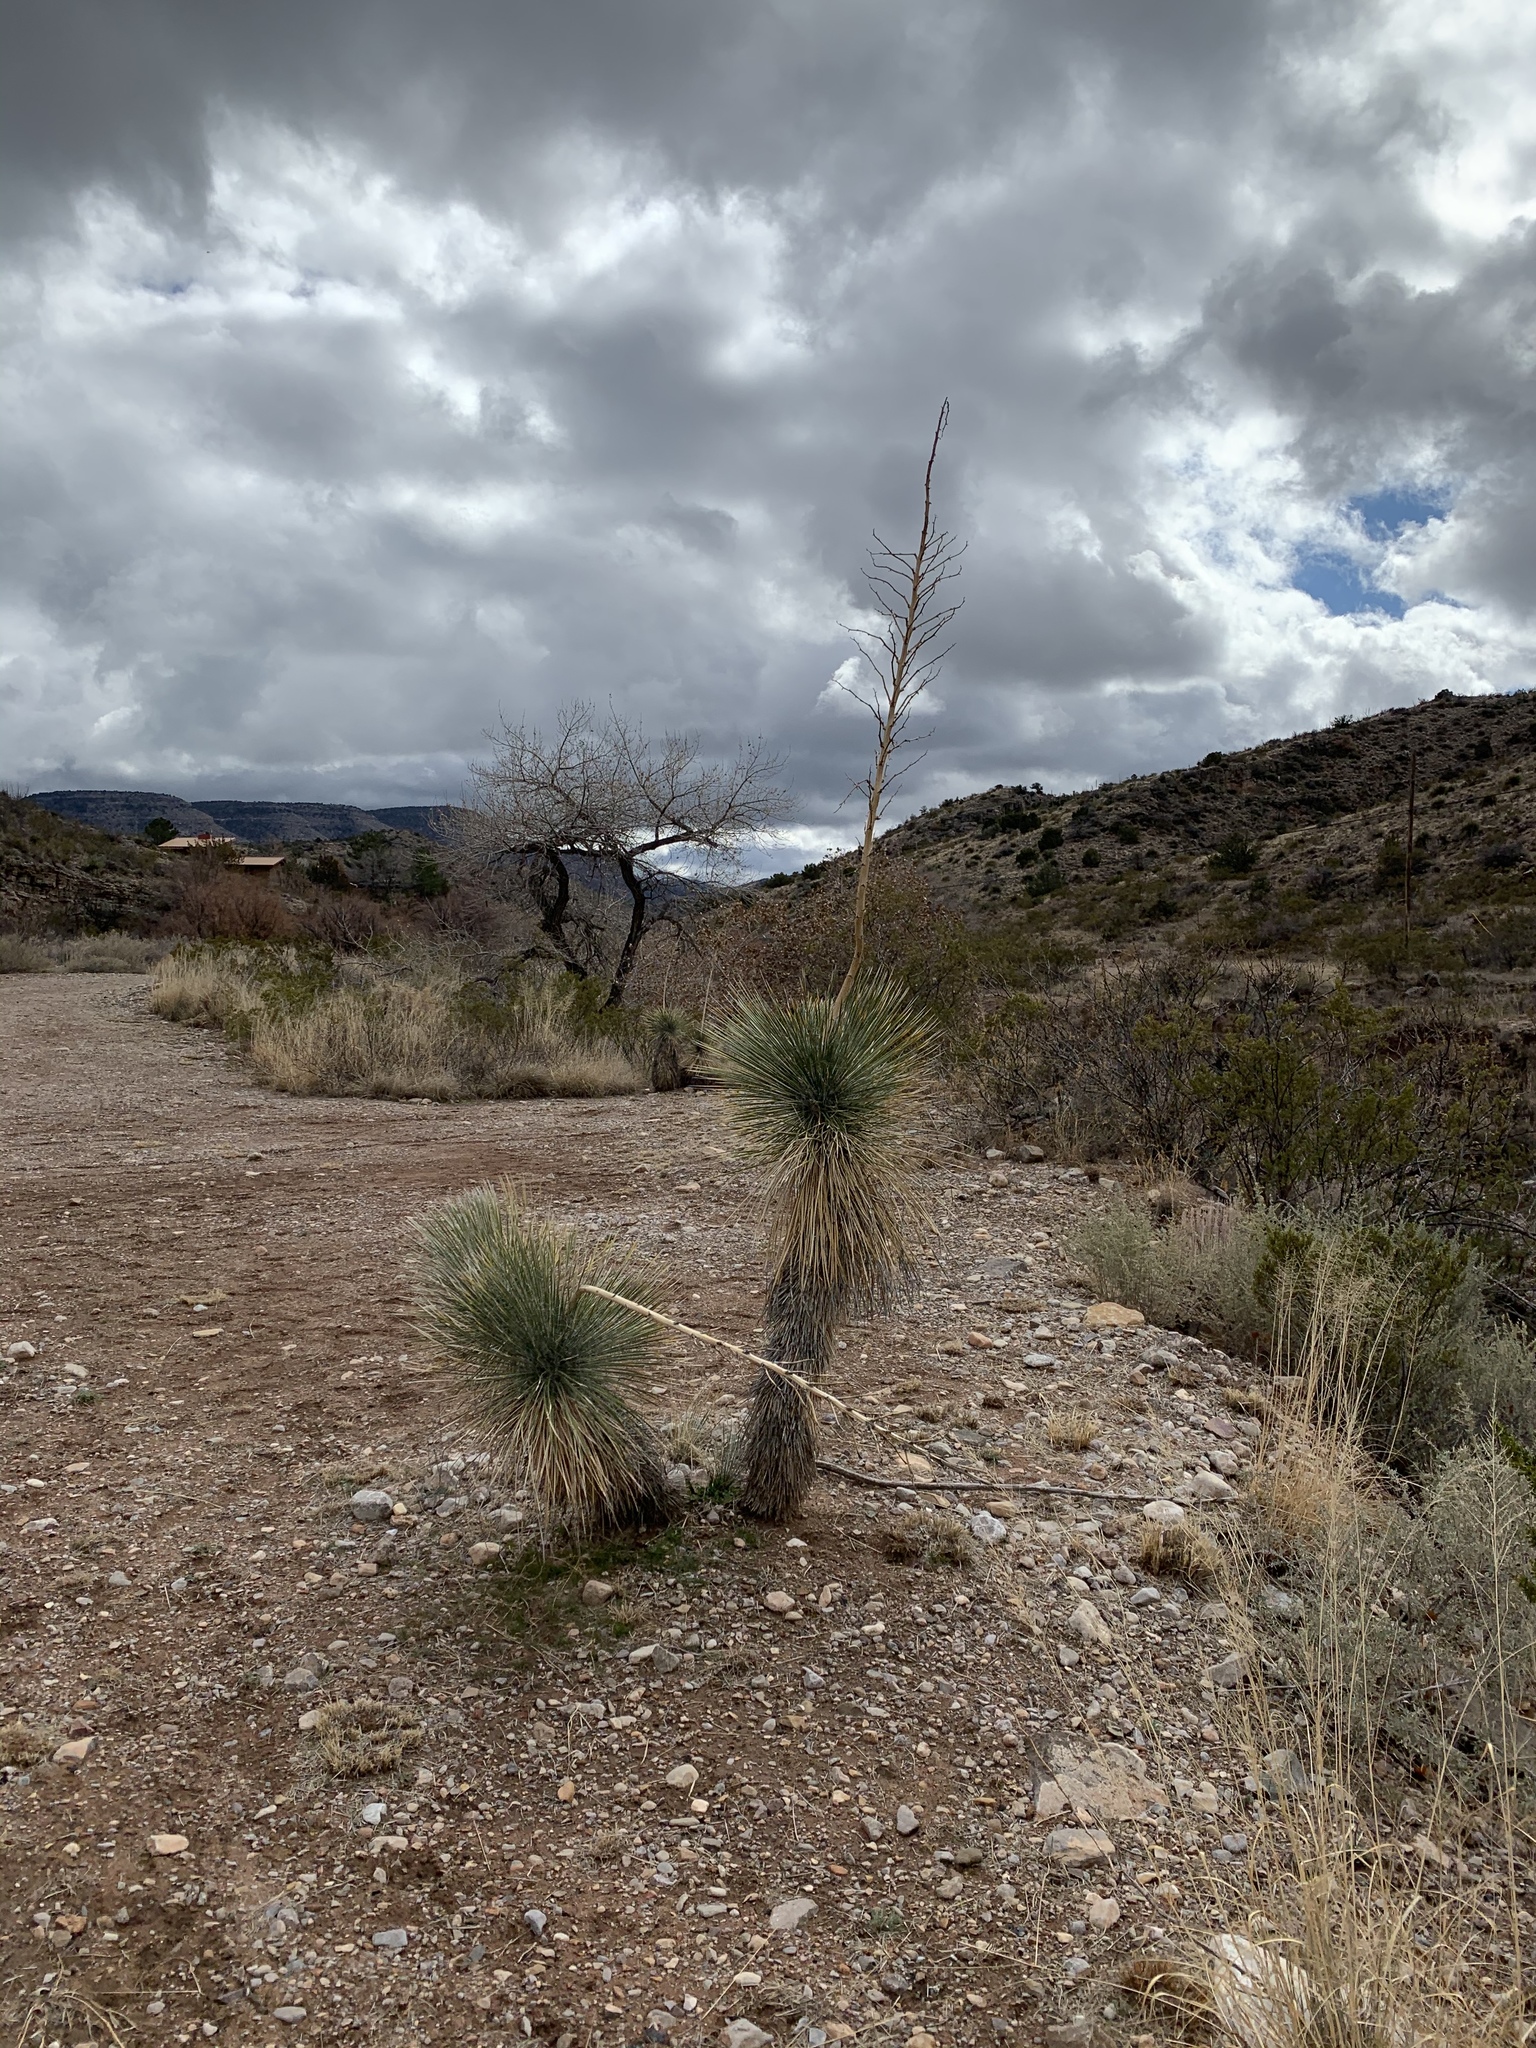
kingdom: Plantae
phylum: Tracheophyta
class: Liliopsida
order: Asparagales
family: Asparagaceae
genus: Yucca
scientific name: Yucca elata
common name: Palmella
